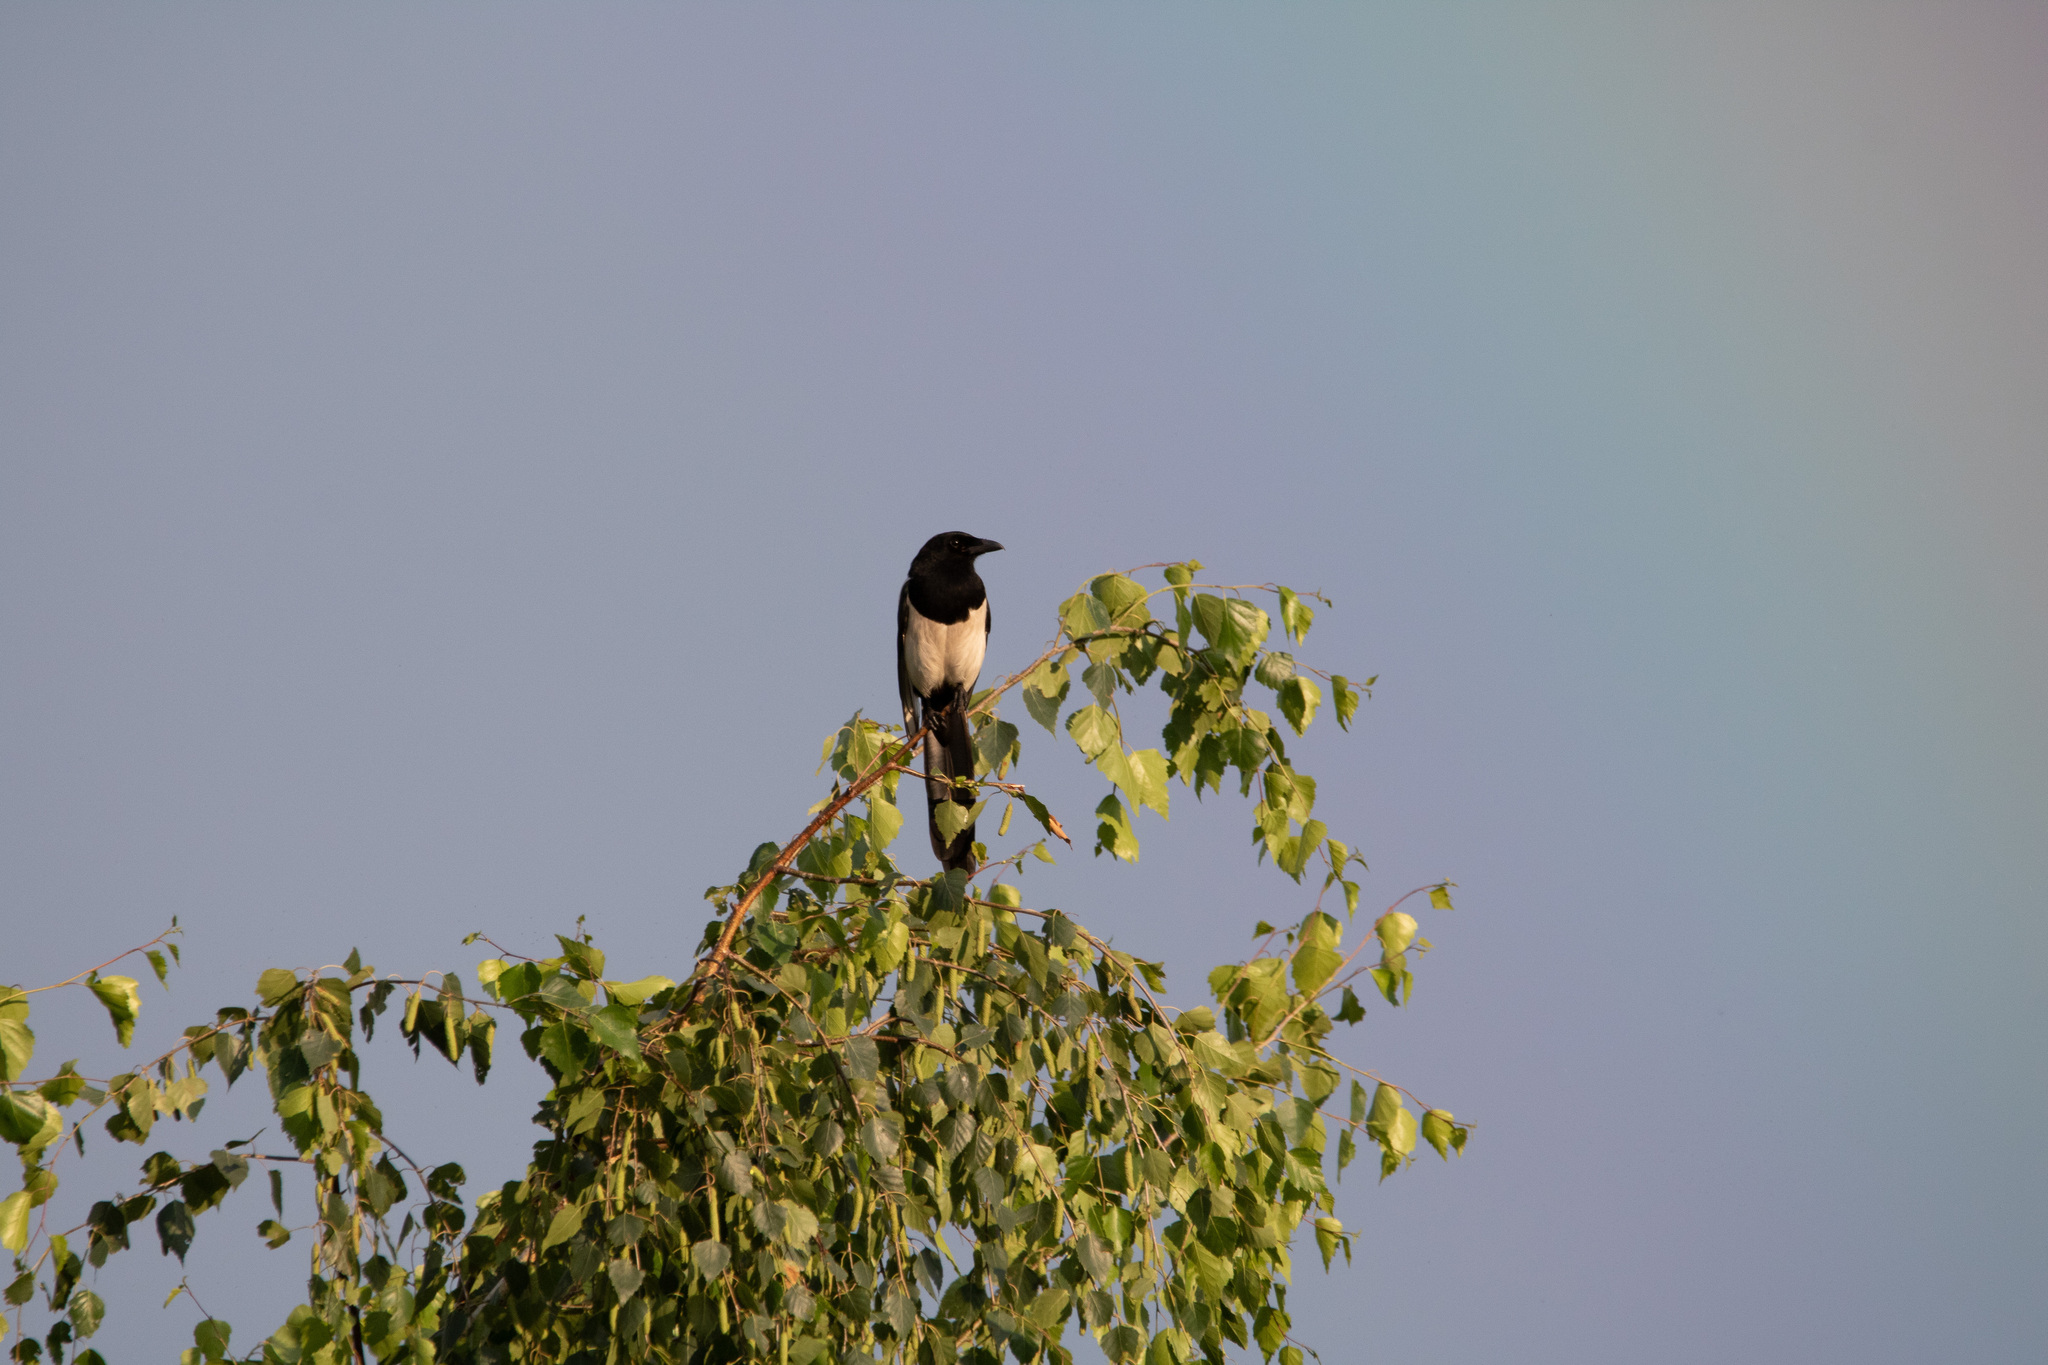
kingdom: Animalia
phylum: Chordata
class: Aves
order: Passeriformes
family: Corvidae
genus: Pica
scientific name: Pica pica
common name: Eurasian magpie
